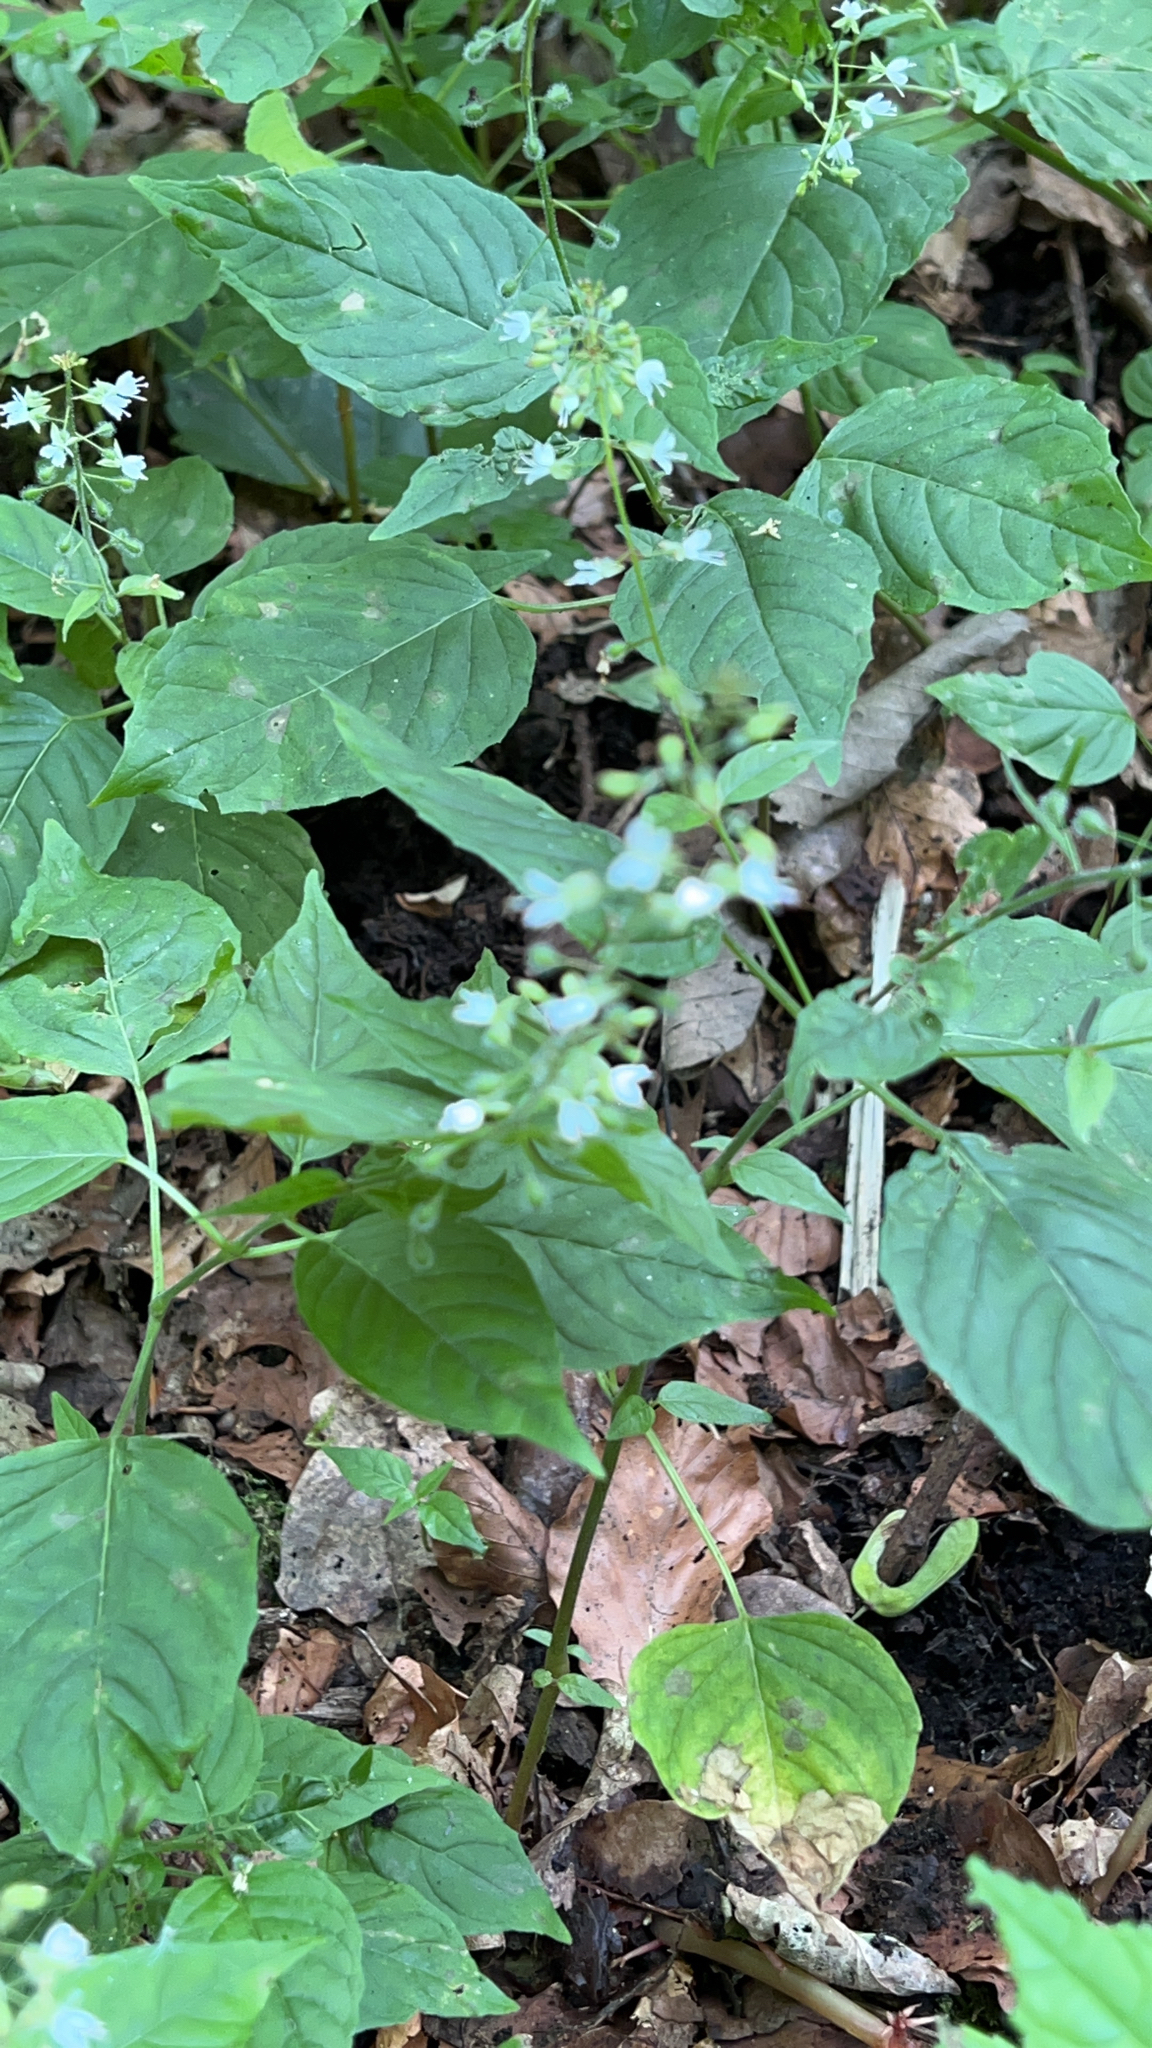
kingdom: Plantae
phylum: Tracheophyta
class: Magnoliopsida
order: Myrtales
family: Onagraceae
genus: Circaea
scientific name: Circaea lutetiana
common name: Enchanter's-nightshade
